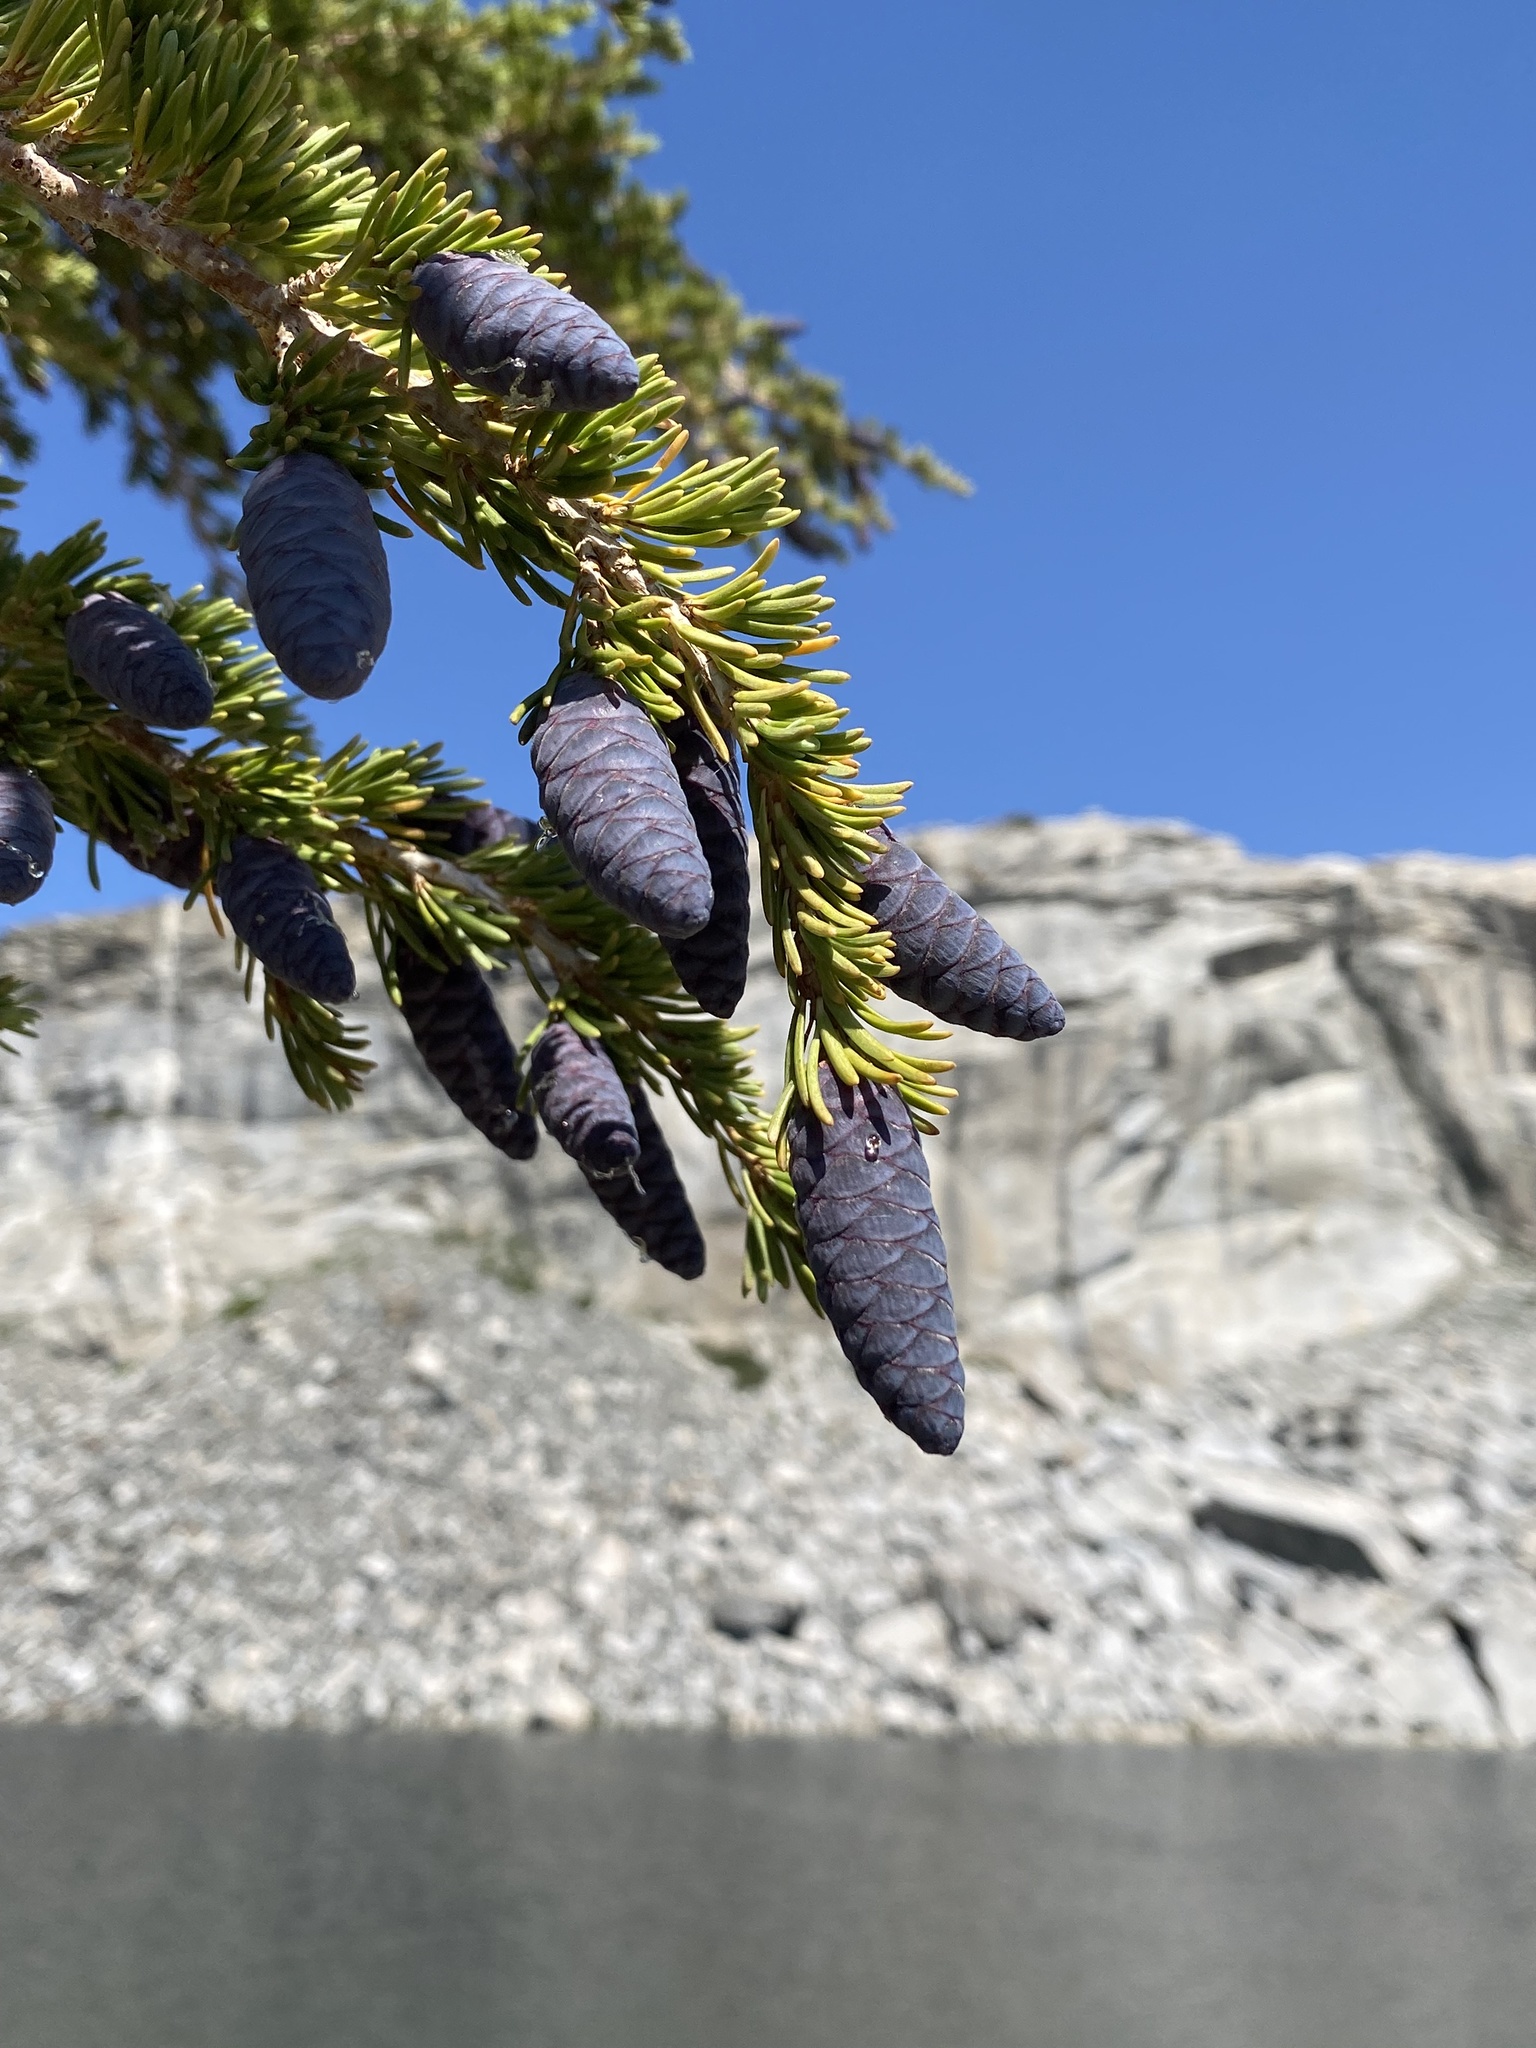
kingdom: Plantae
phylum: Tracheophyta
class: Pinopsida
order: Pinales
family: Pinaceae
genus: Tsuga
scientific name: Tsuga mertensiana
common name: Mountain hemlock
